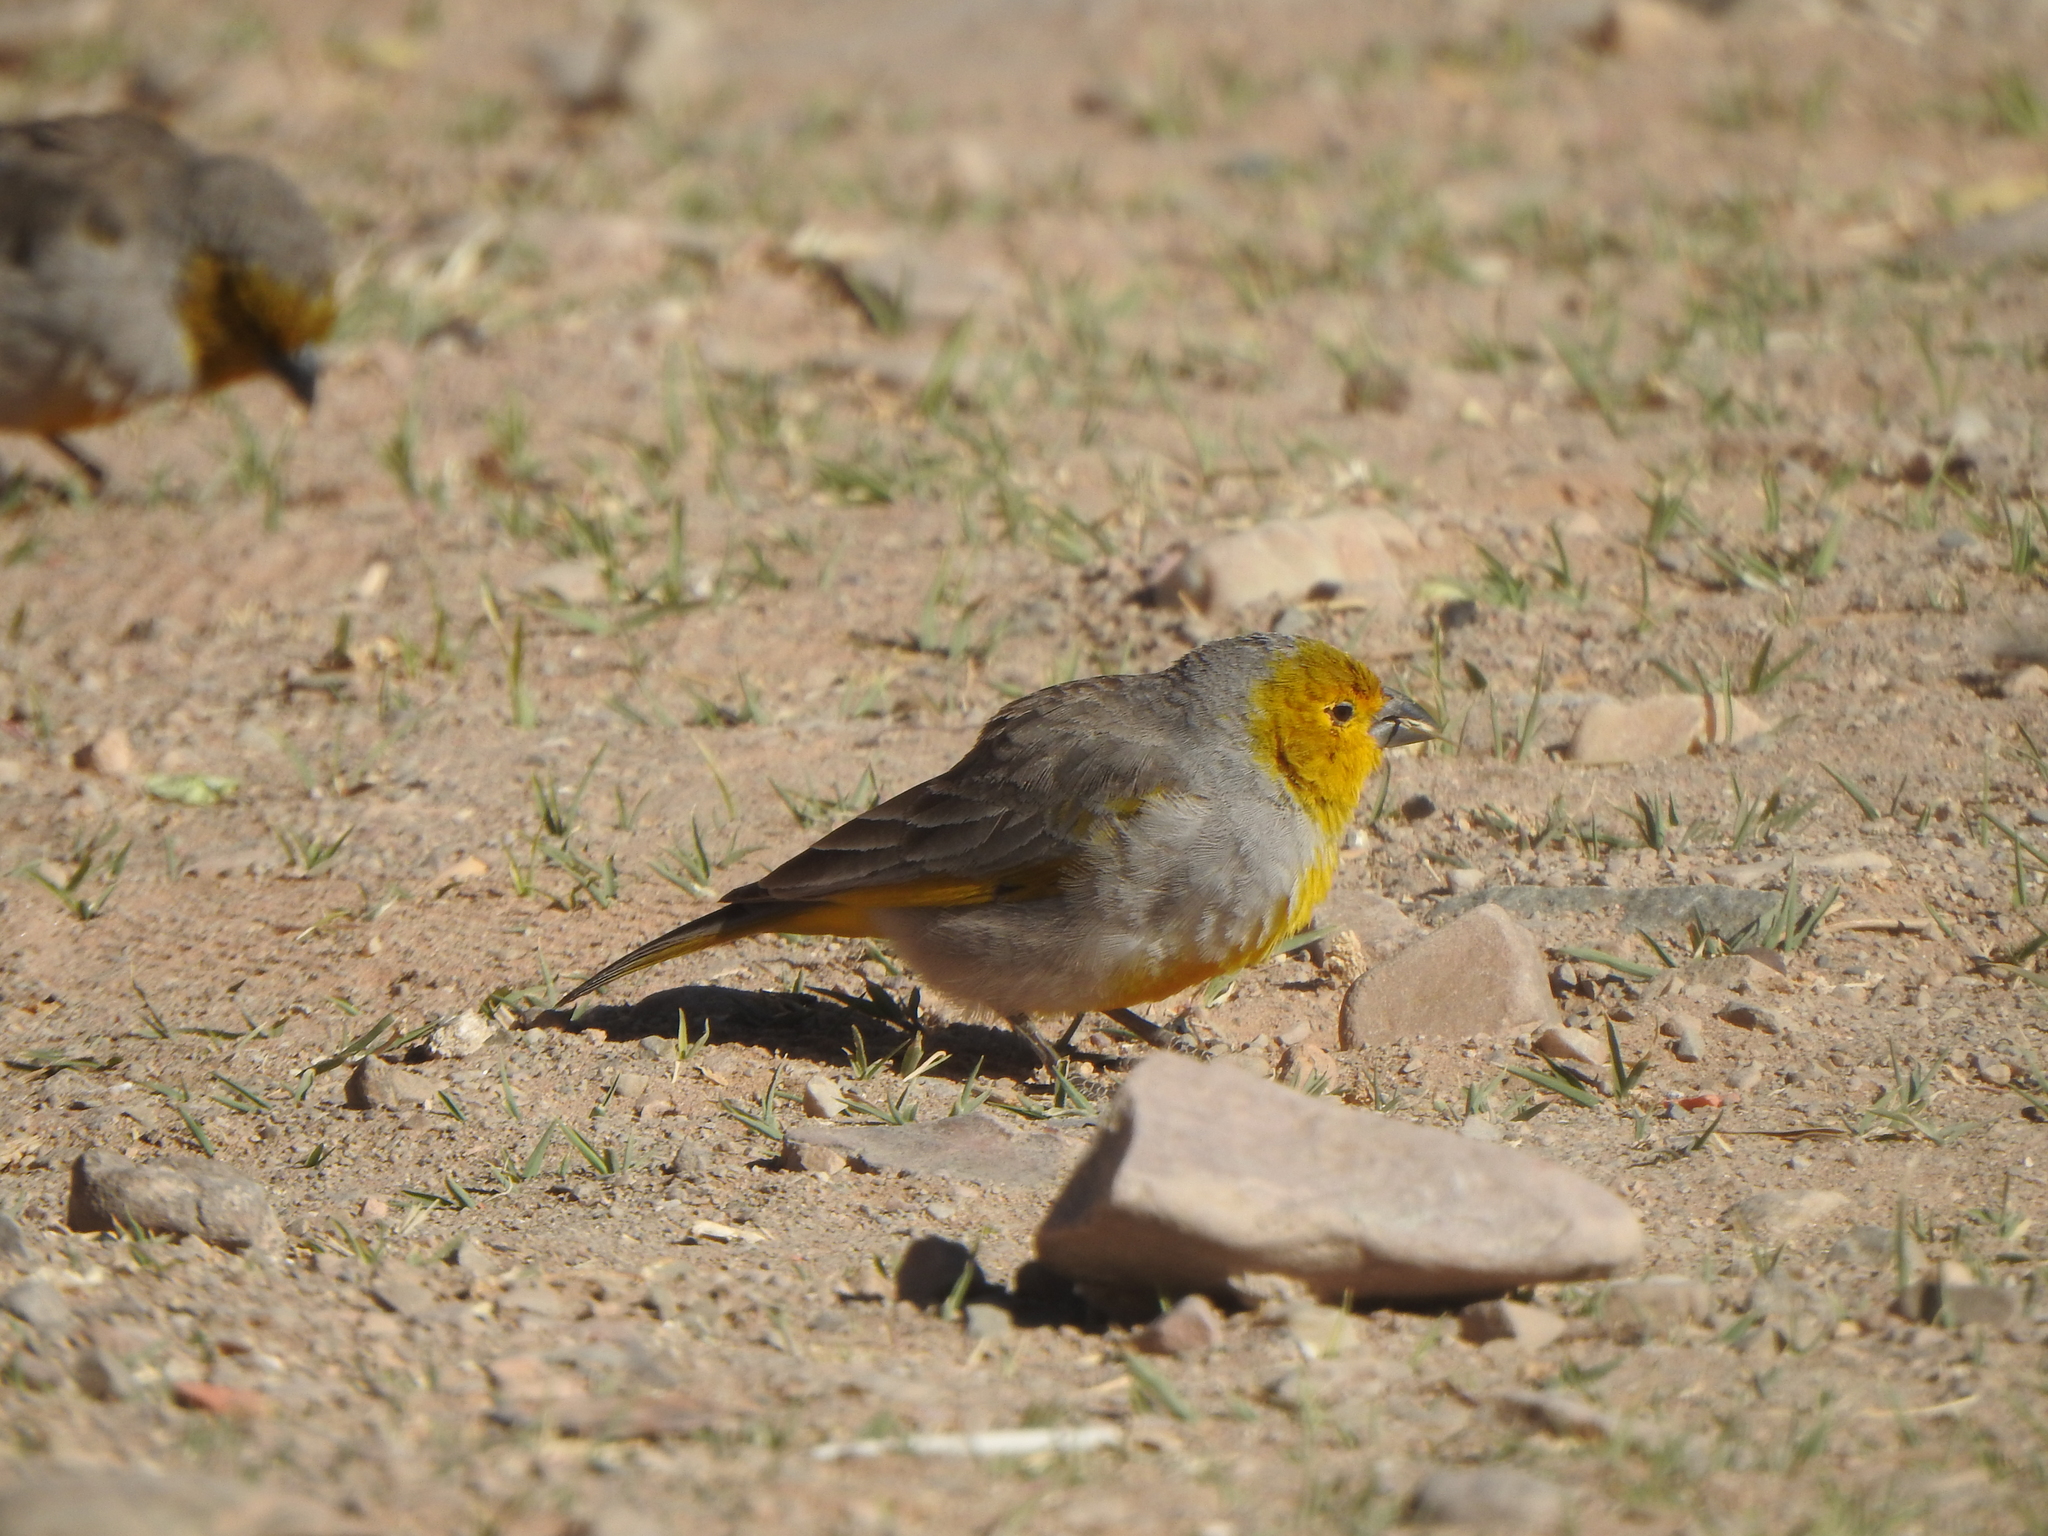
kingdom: Animalia
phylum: Chordata
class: Aves
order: Passeriformes
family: Thraupidae
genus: Sicalis
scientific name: Sicalis luteocephala
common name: Citron-headed yellow finch
